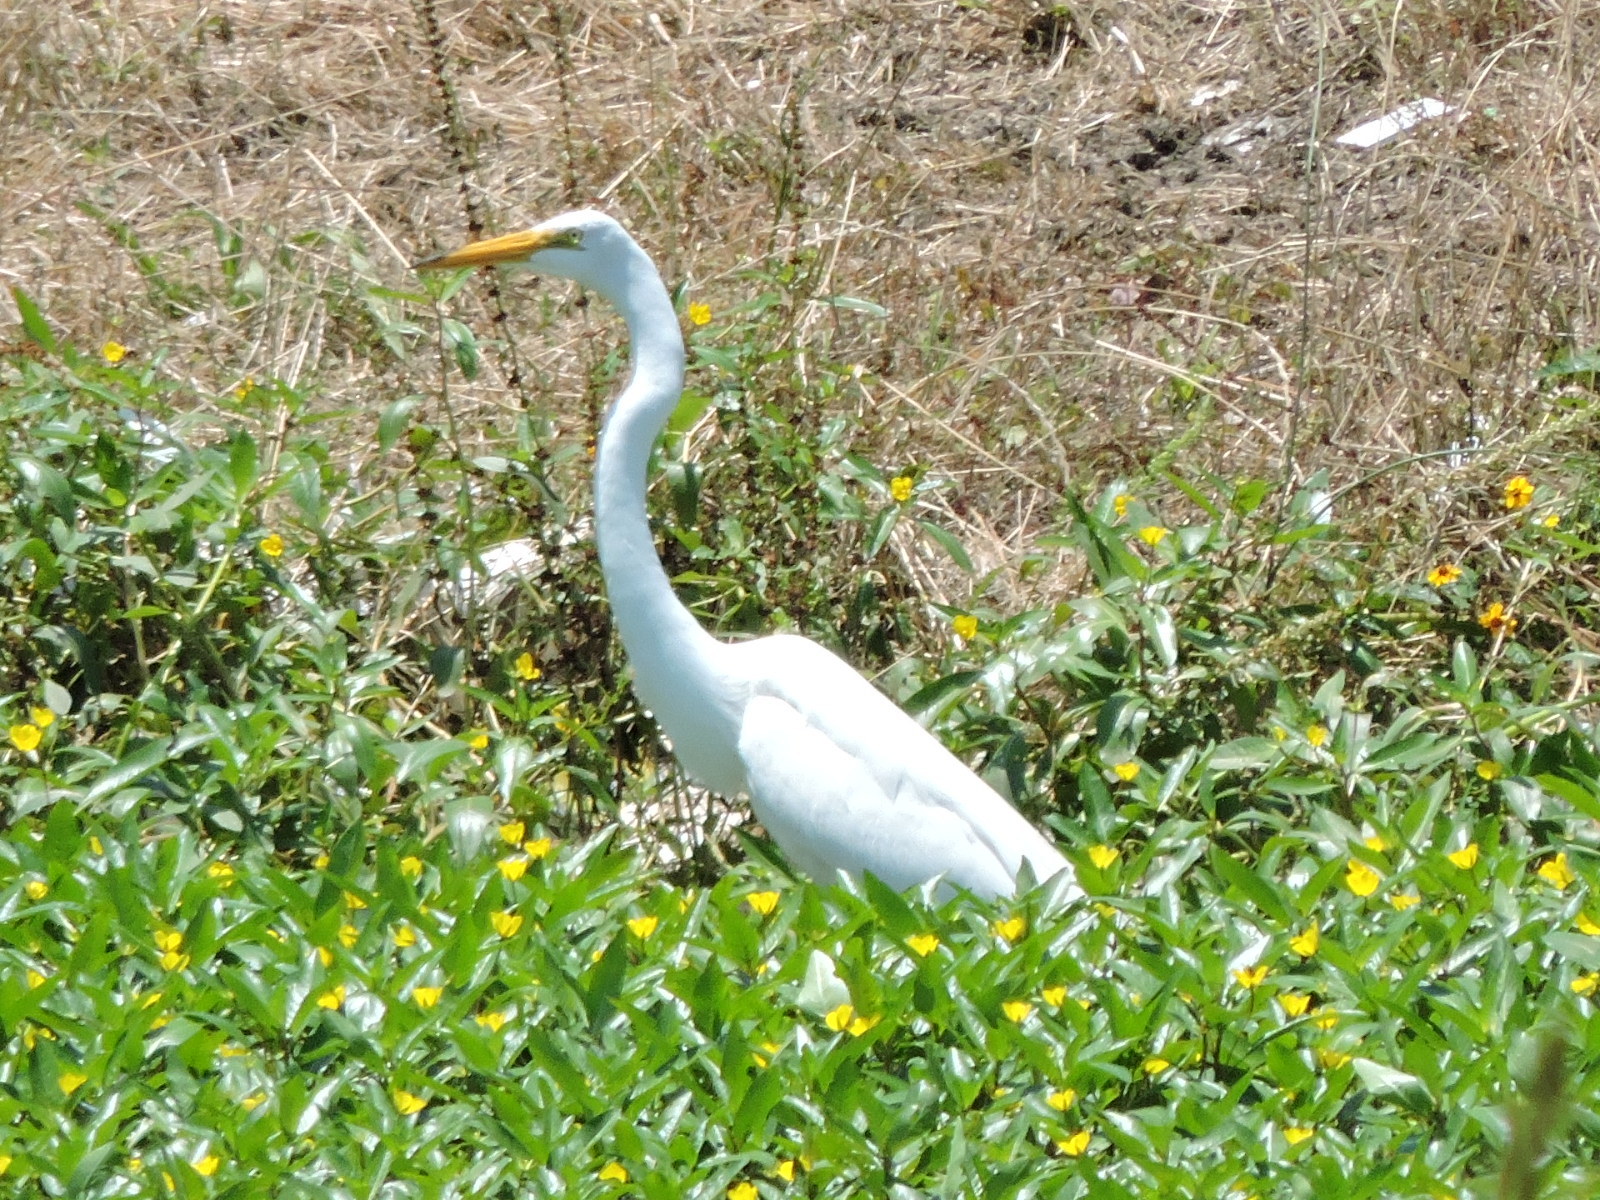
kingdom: Animalia
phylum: Chordata
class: Aves
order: Pelecaniformes
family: Ardeidae
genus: Ardea
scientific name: Ardea alba
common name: Great egret
